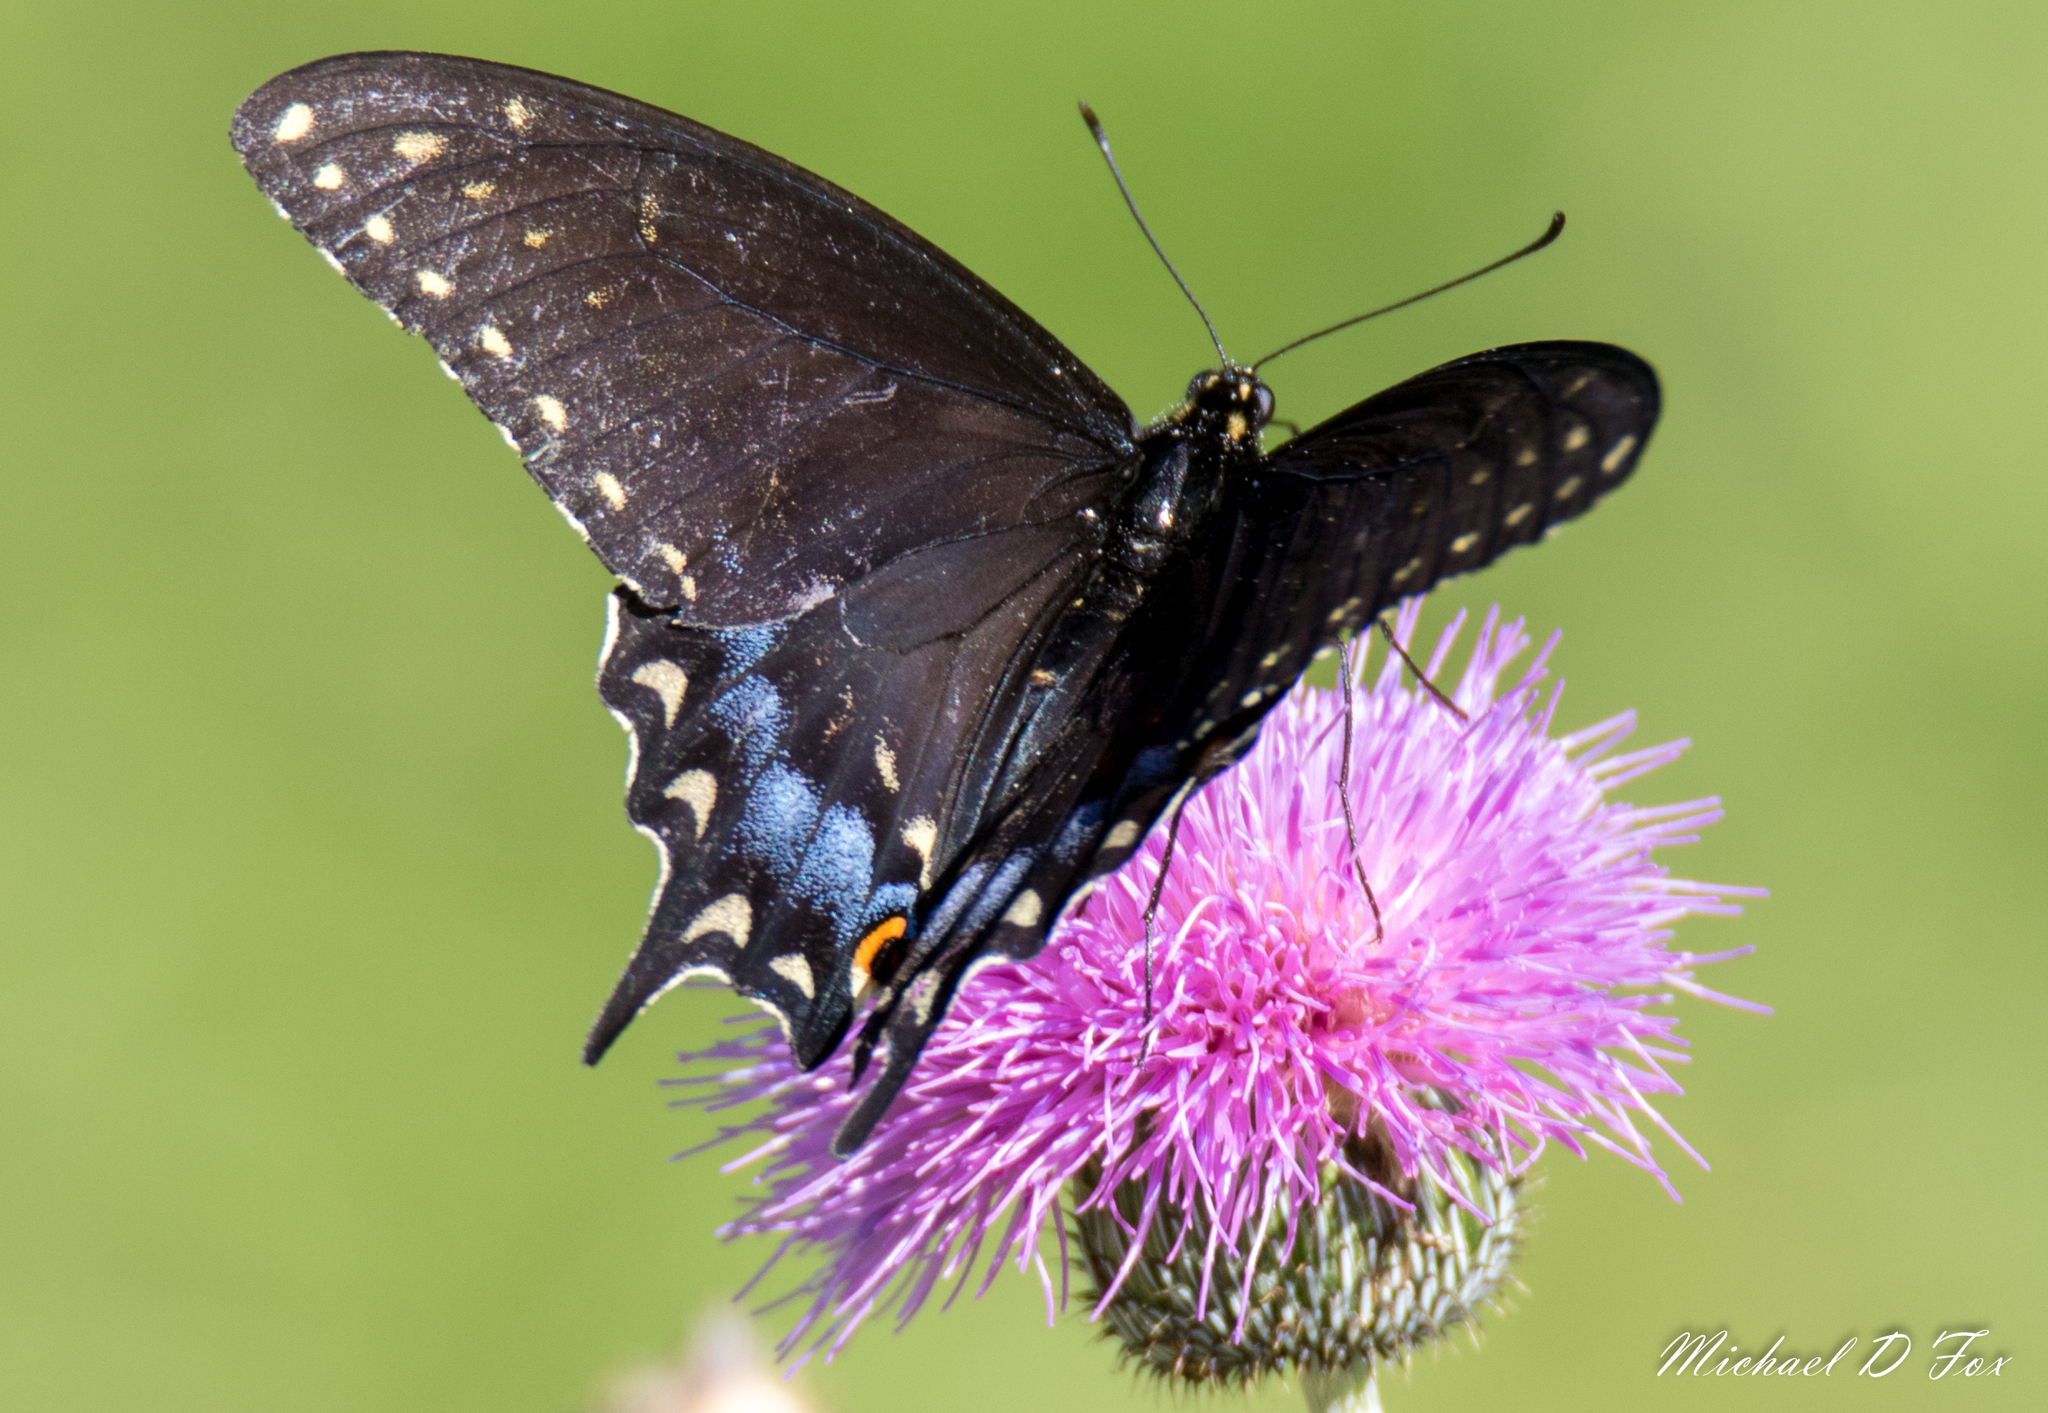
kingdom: Animalia
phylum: Arthropoda
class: Insecta
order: Lepidoptera
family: Papilionidae
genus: Papilio
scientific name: Papilio polyxenes
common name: Black swallowtail
